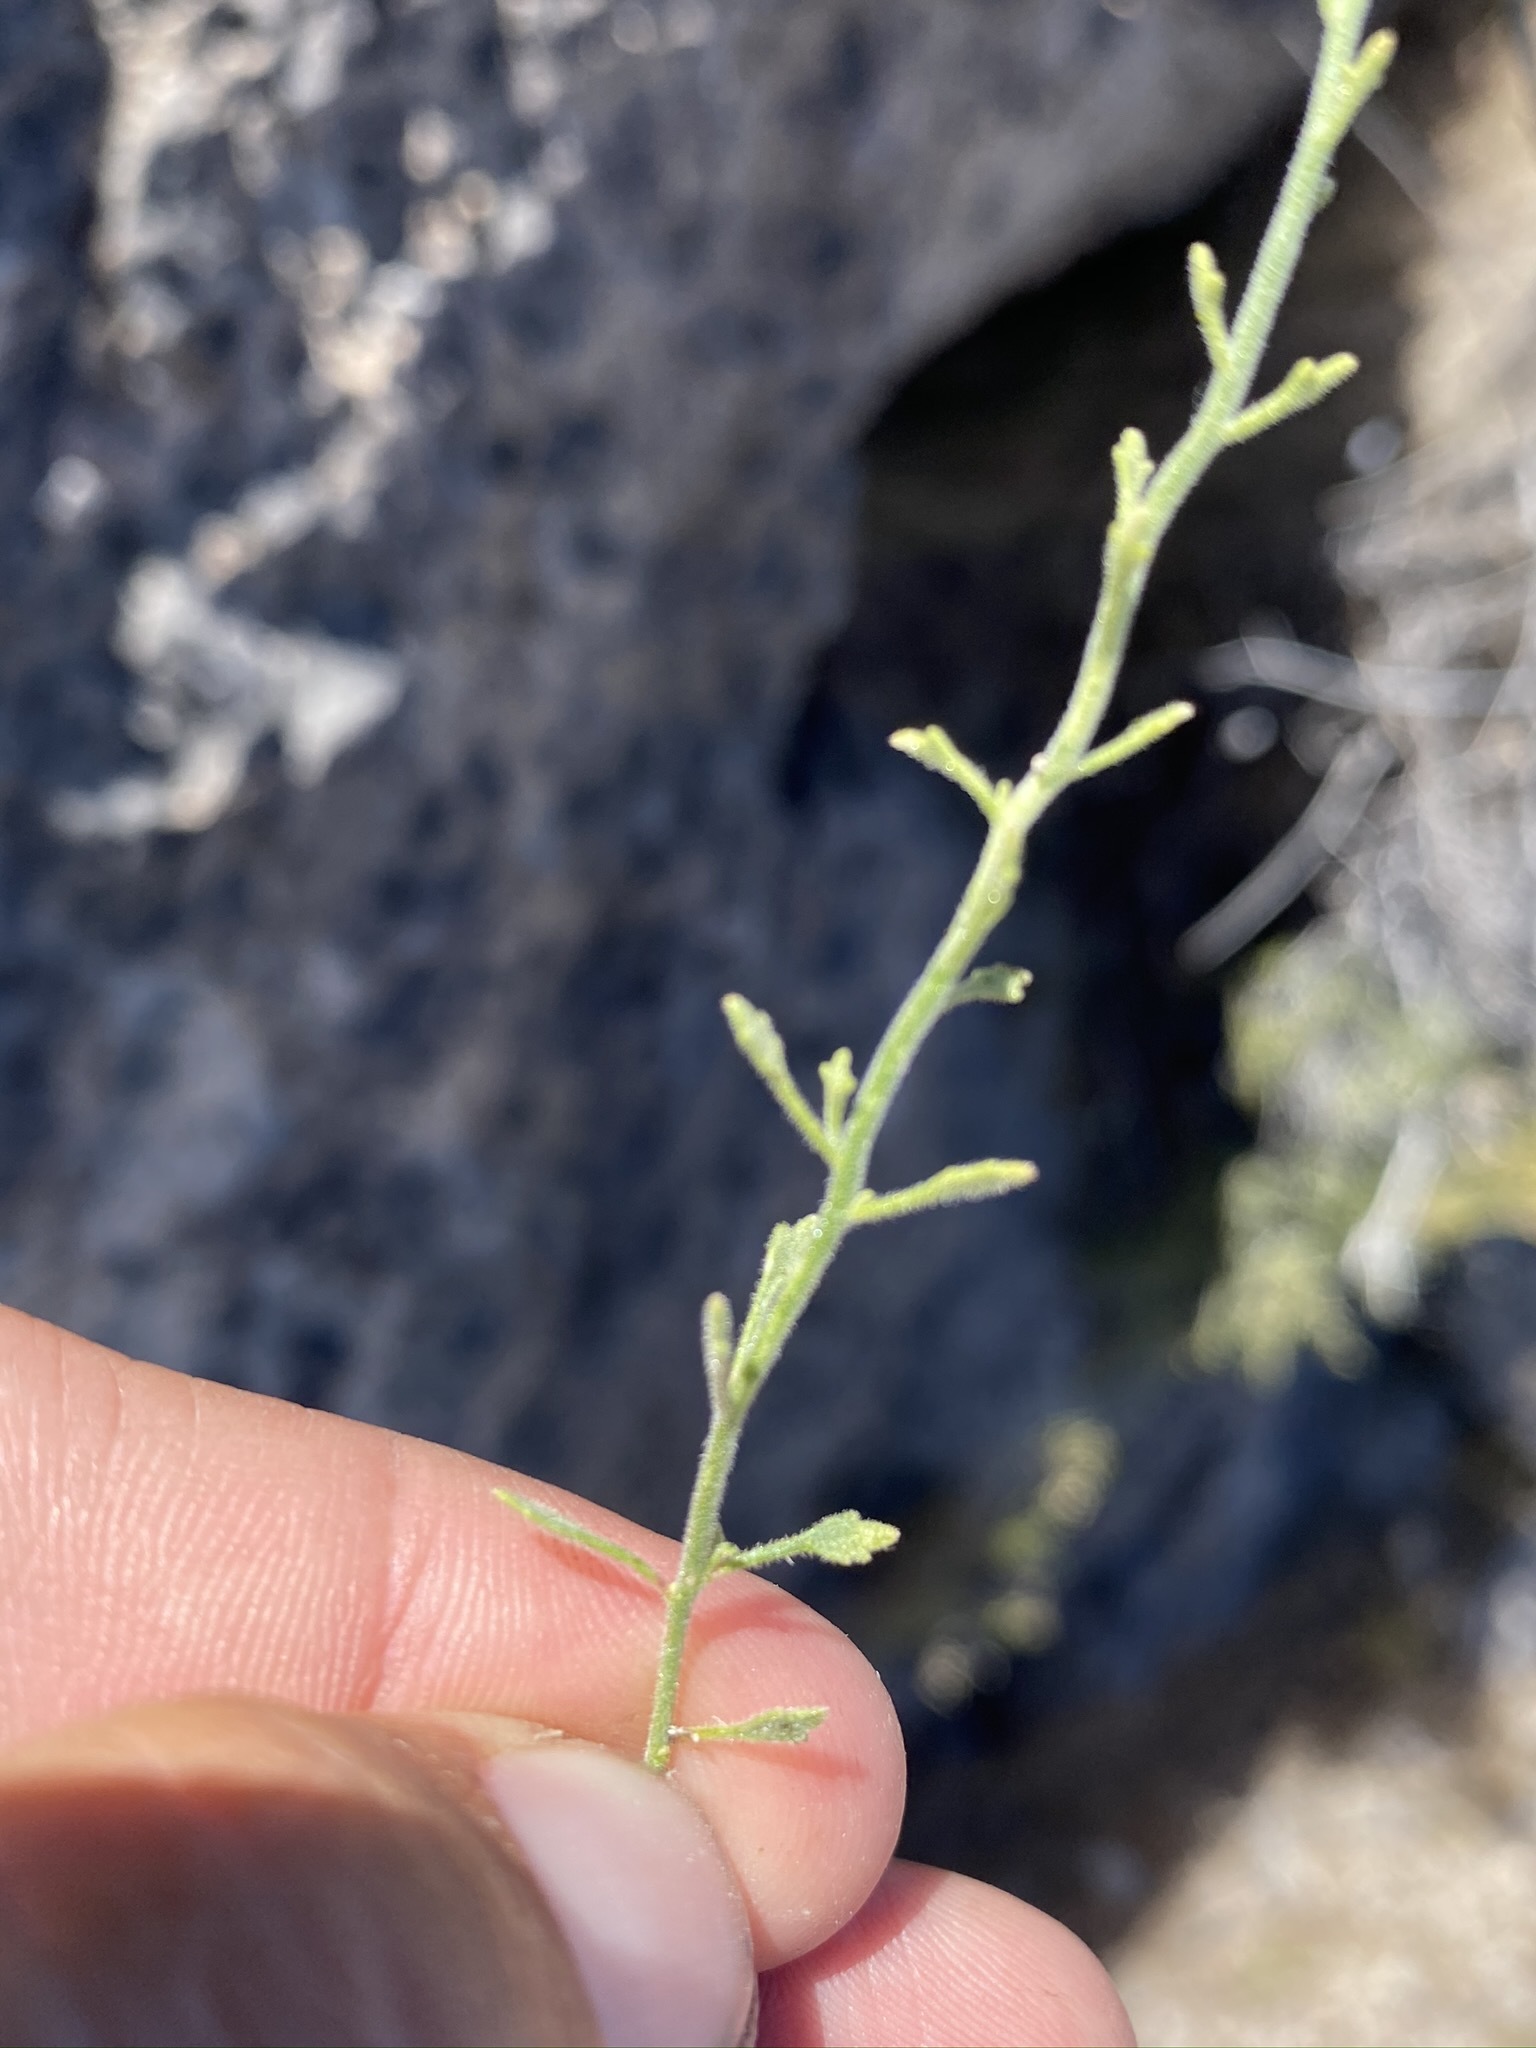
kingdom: Plantae
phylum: Tracheophyta
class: Magnoliopsida
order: Asterales
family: Asteraceae
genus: Laphamia
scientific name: Laphamia gracilis
